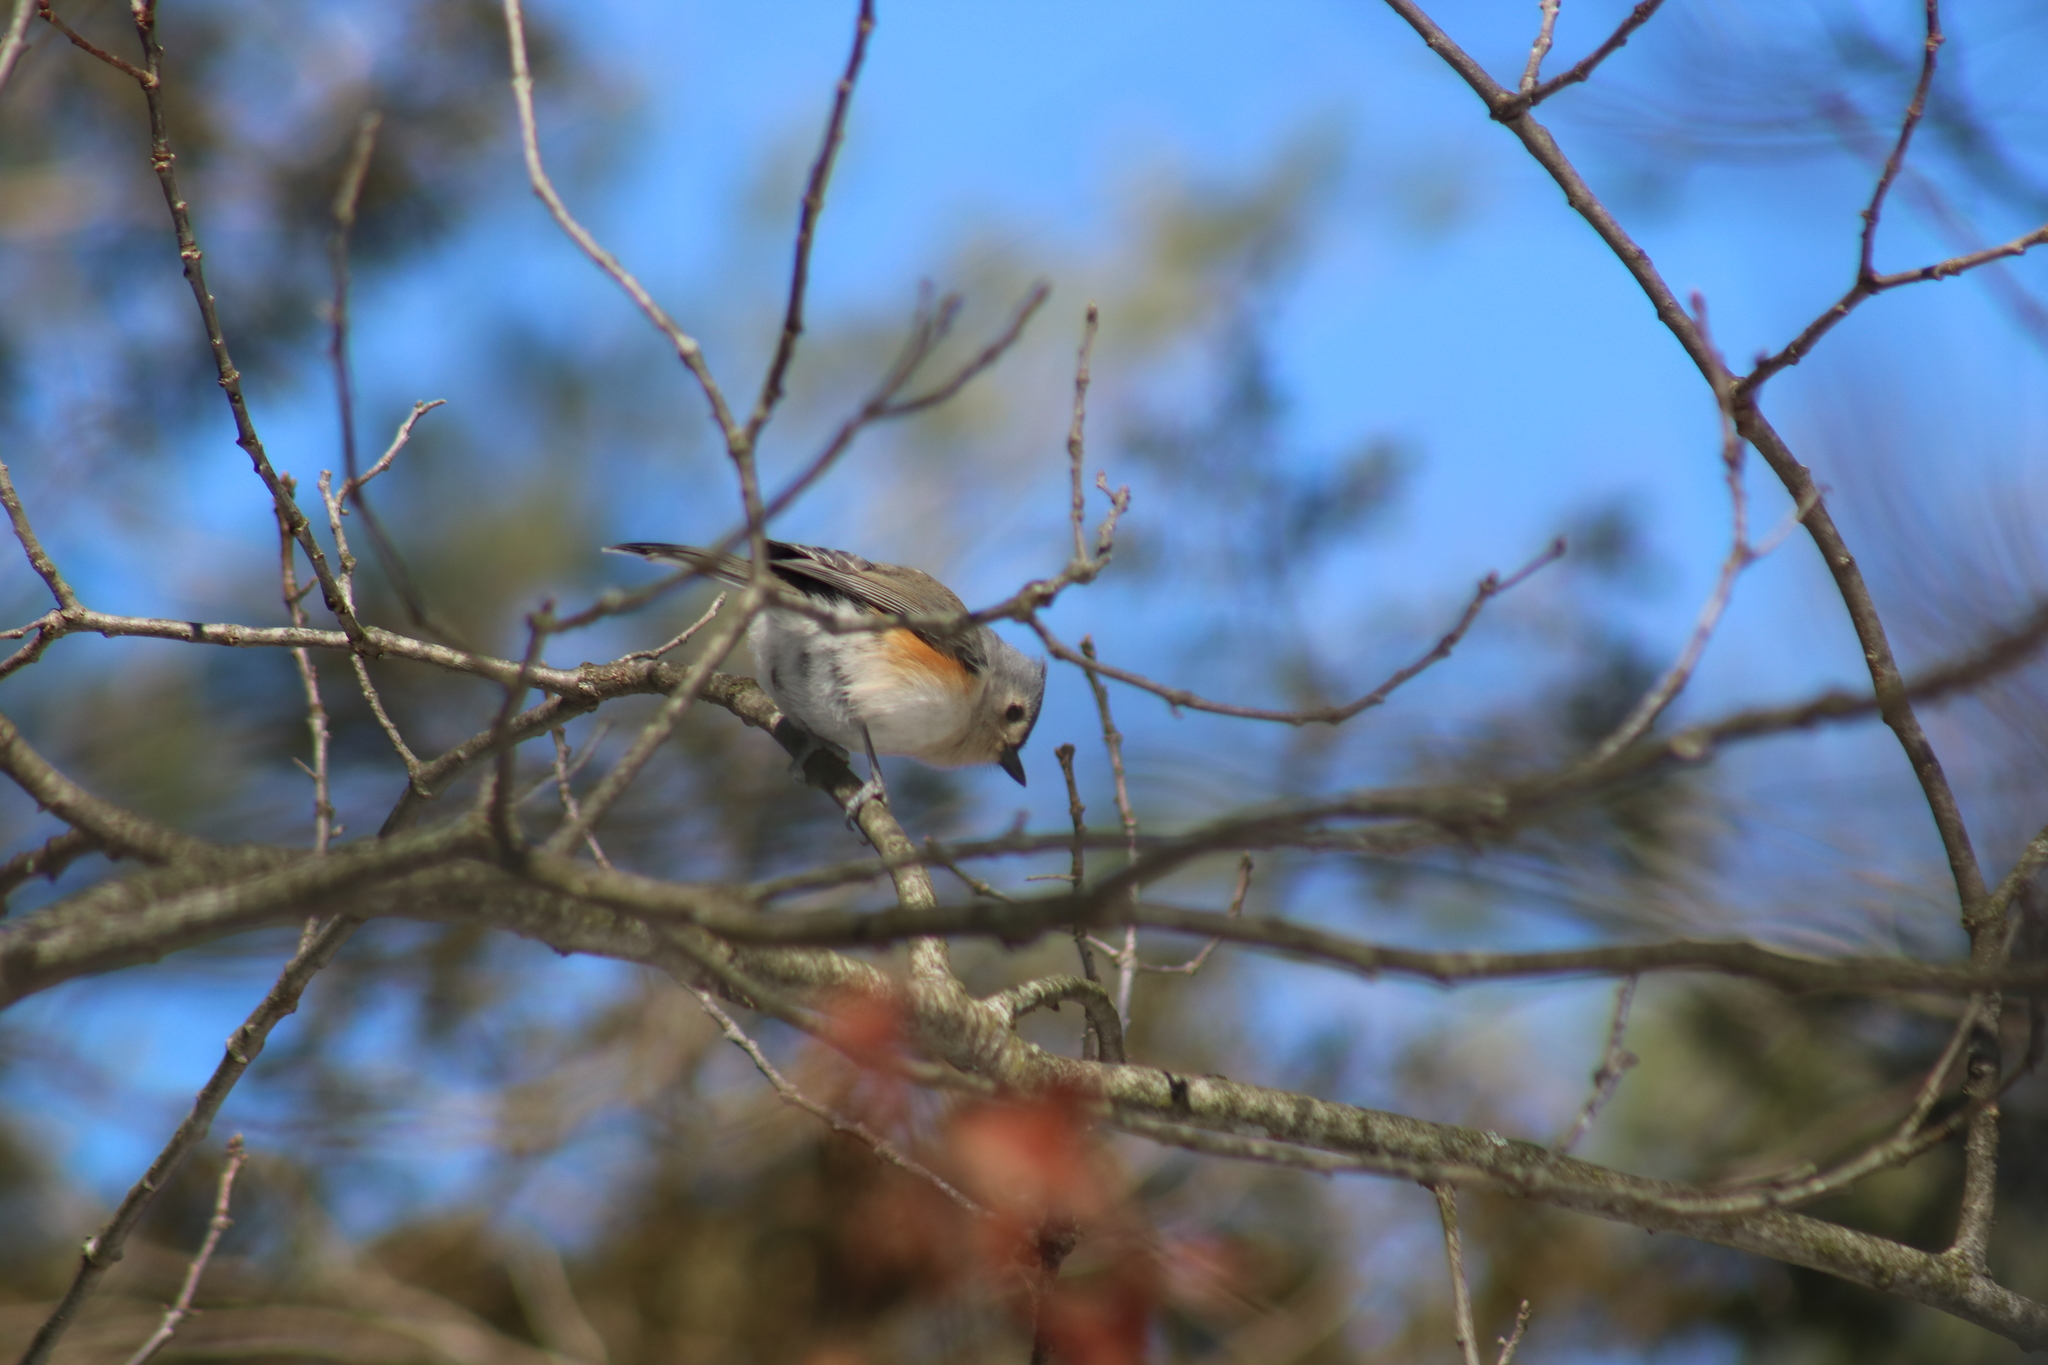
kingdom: Animalia
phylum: Chordata
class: Aves
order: Passeriformes
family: Paridae
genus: Baeolophus
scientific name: Baeolophus bicolor
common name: Tufted titmouse
